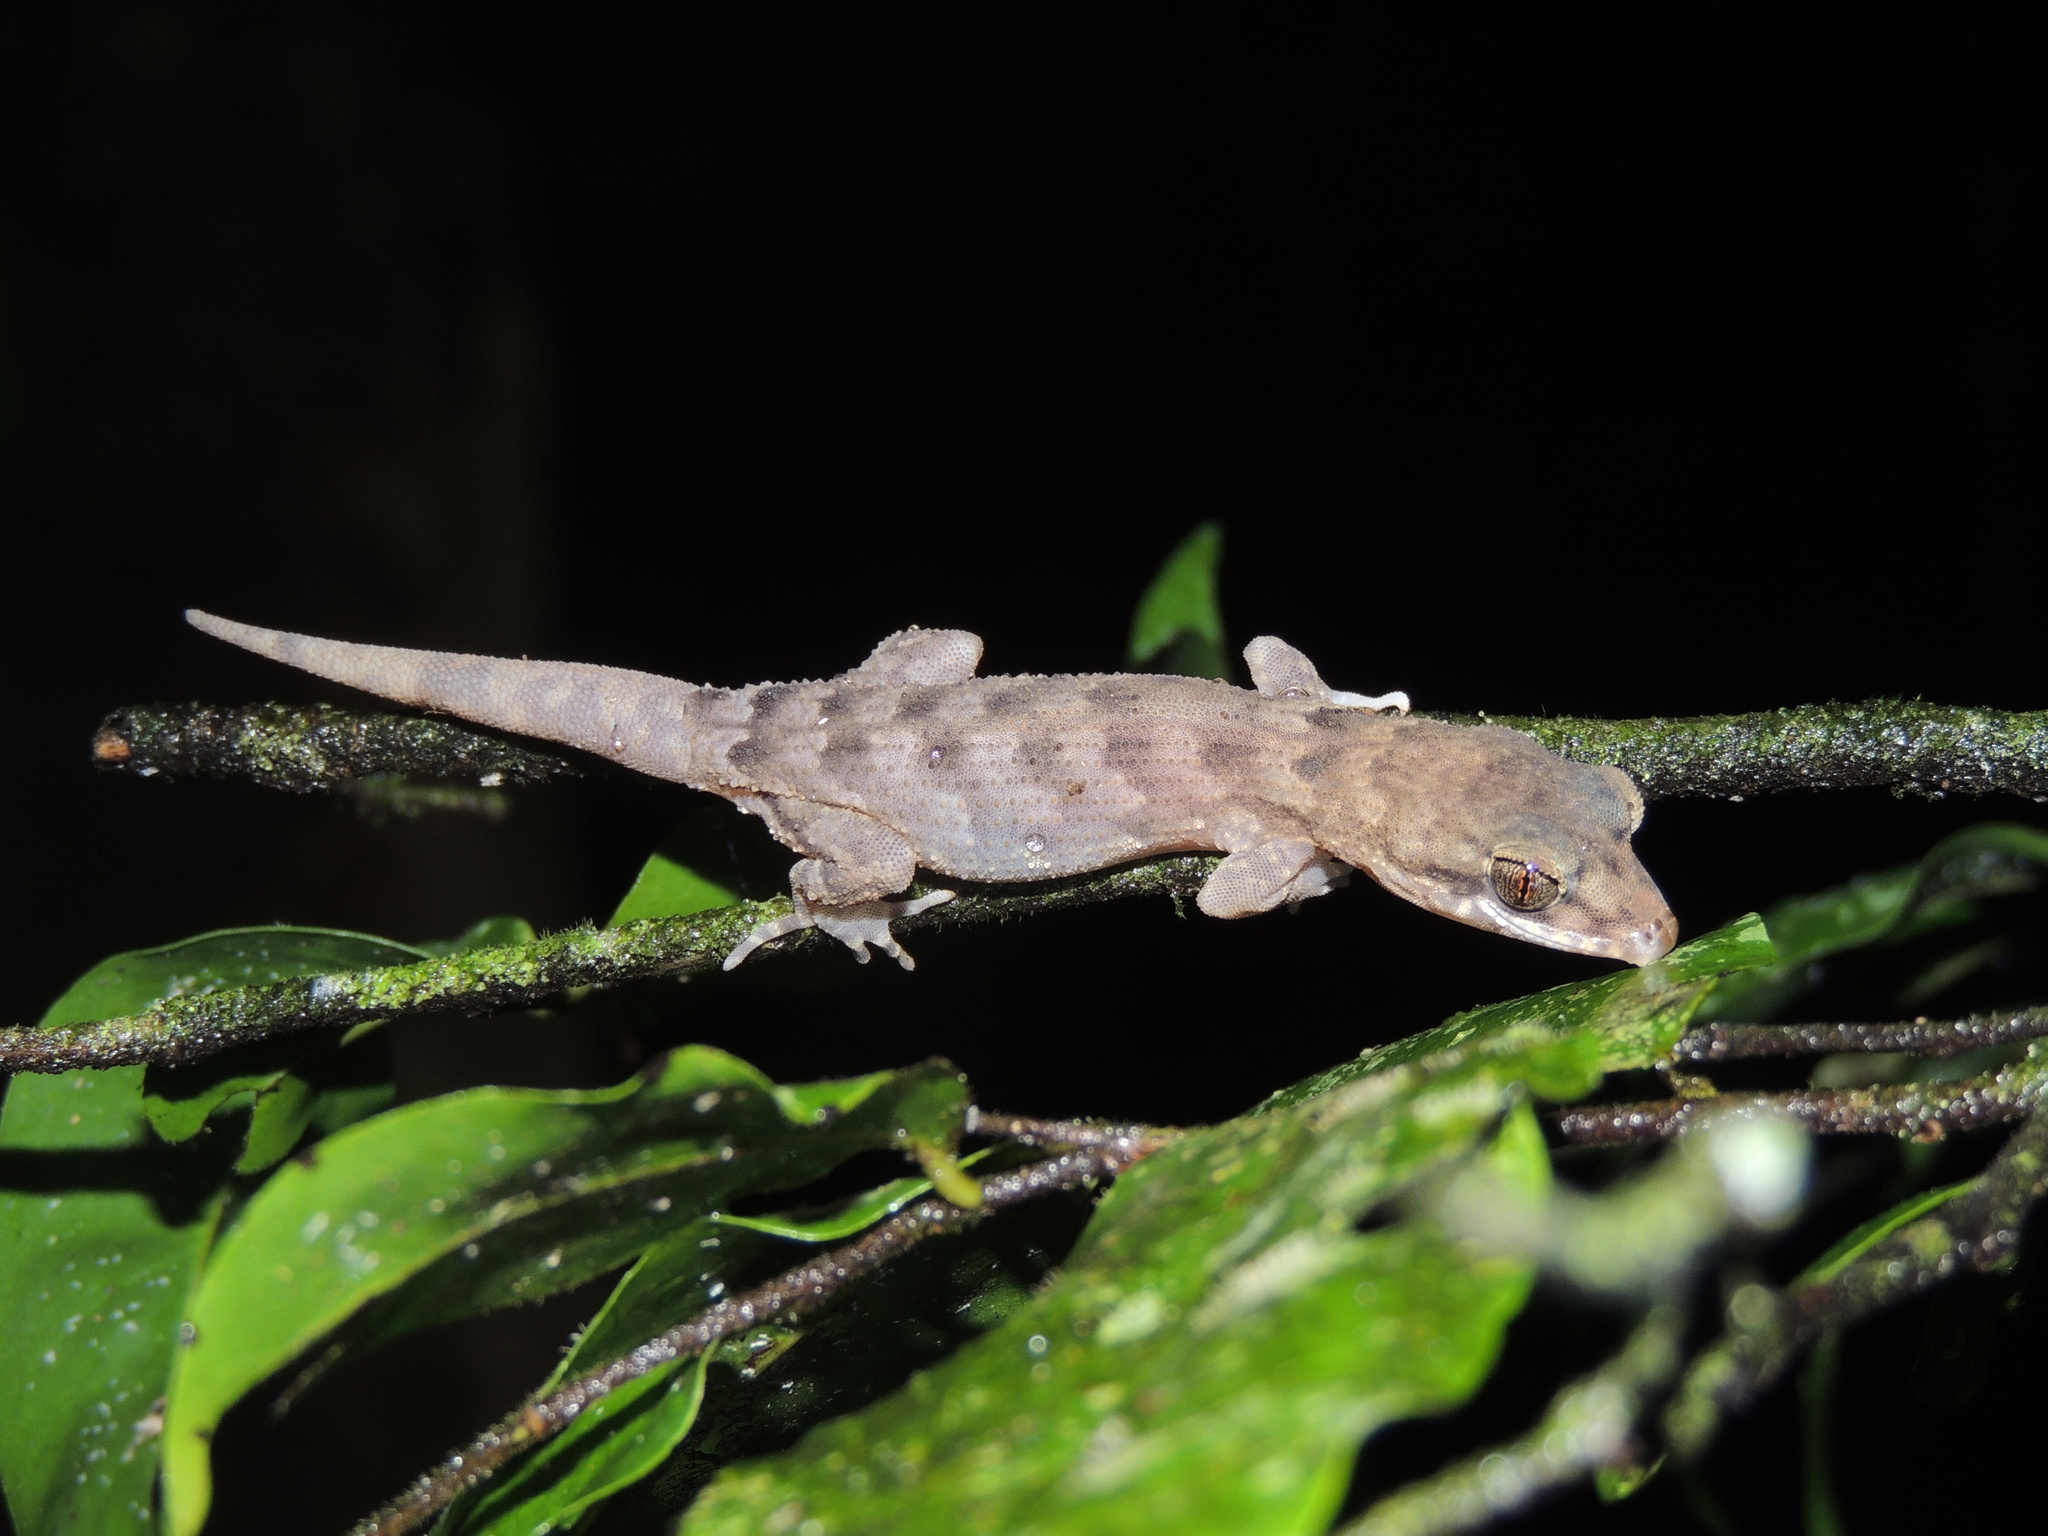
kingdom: Animalia
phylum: Chordata
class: Squamata
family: Gekkonidae
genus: Nactus
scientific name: Nactus pelagicus
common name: Pelagic gecko
